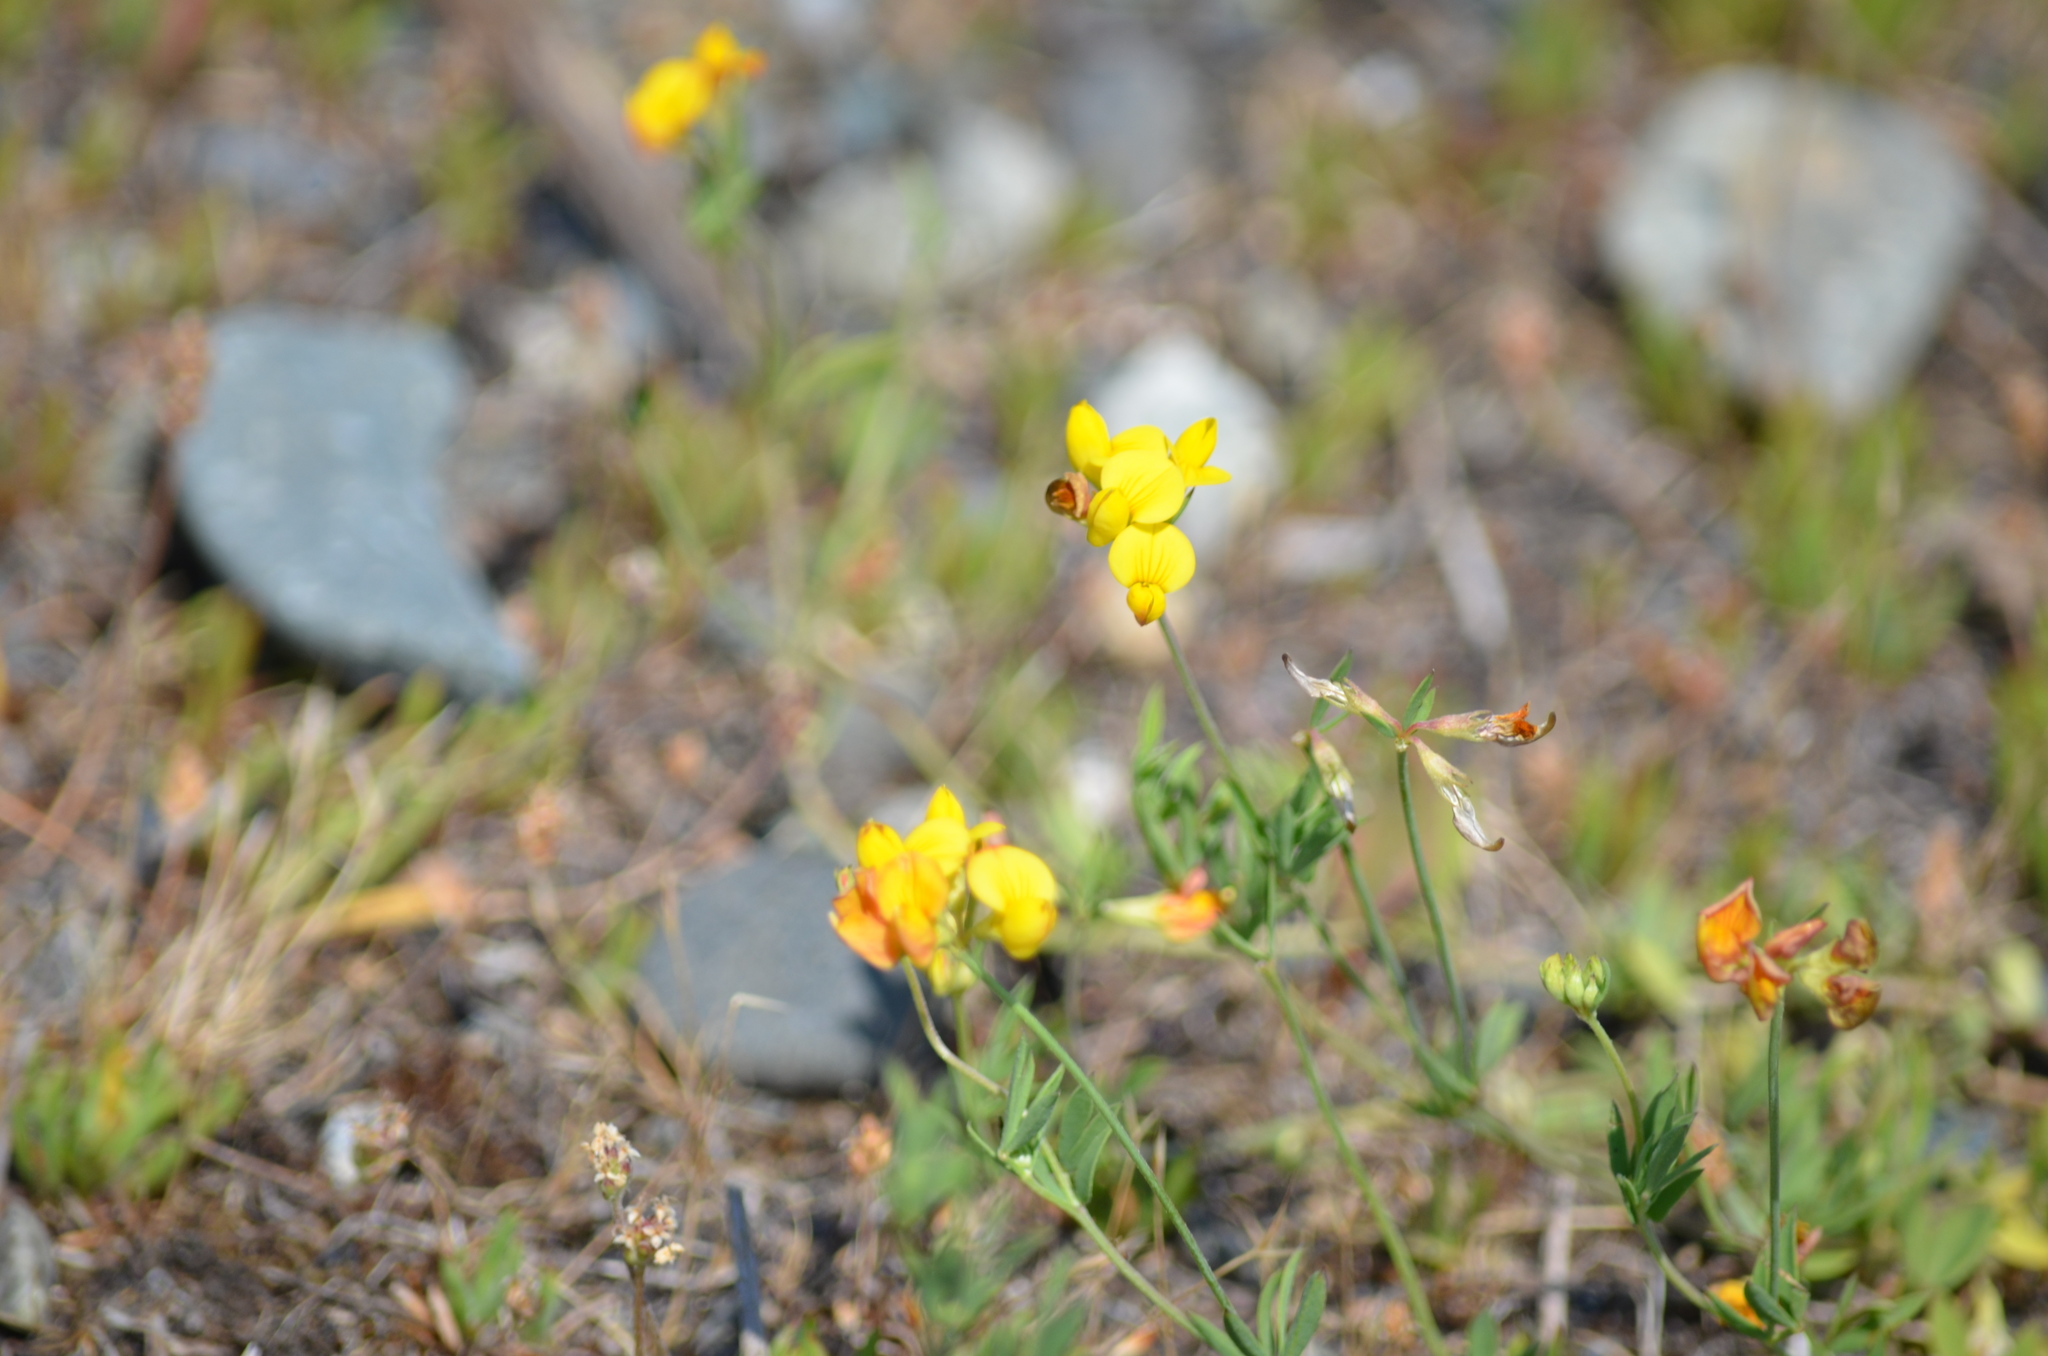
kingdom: Plantae
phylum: Tracheophyta
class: Magnoliopsida
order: Fabales
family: Fabaceae
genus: Lotus
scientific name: Lotus corniculatus
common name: Common bird's-foot-trefoil
